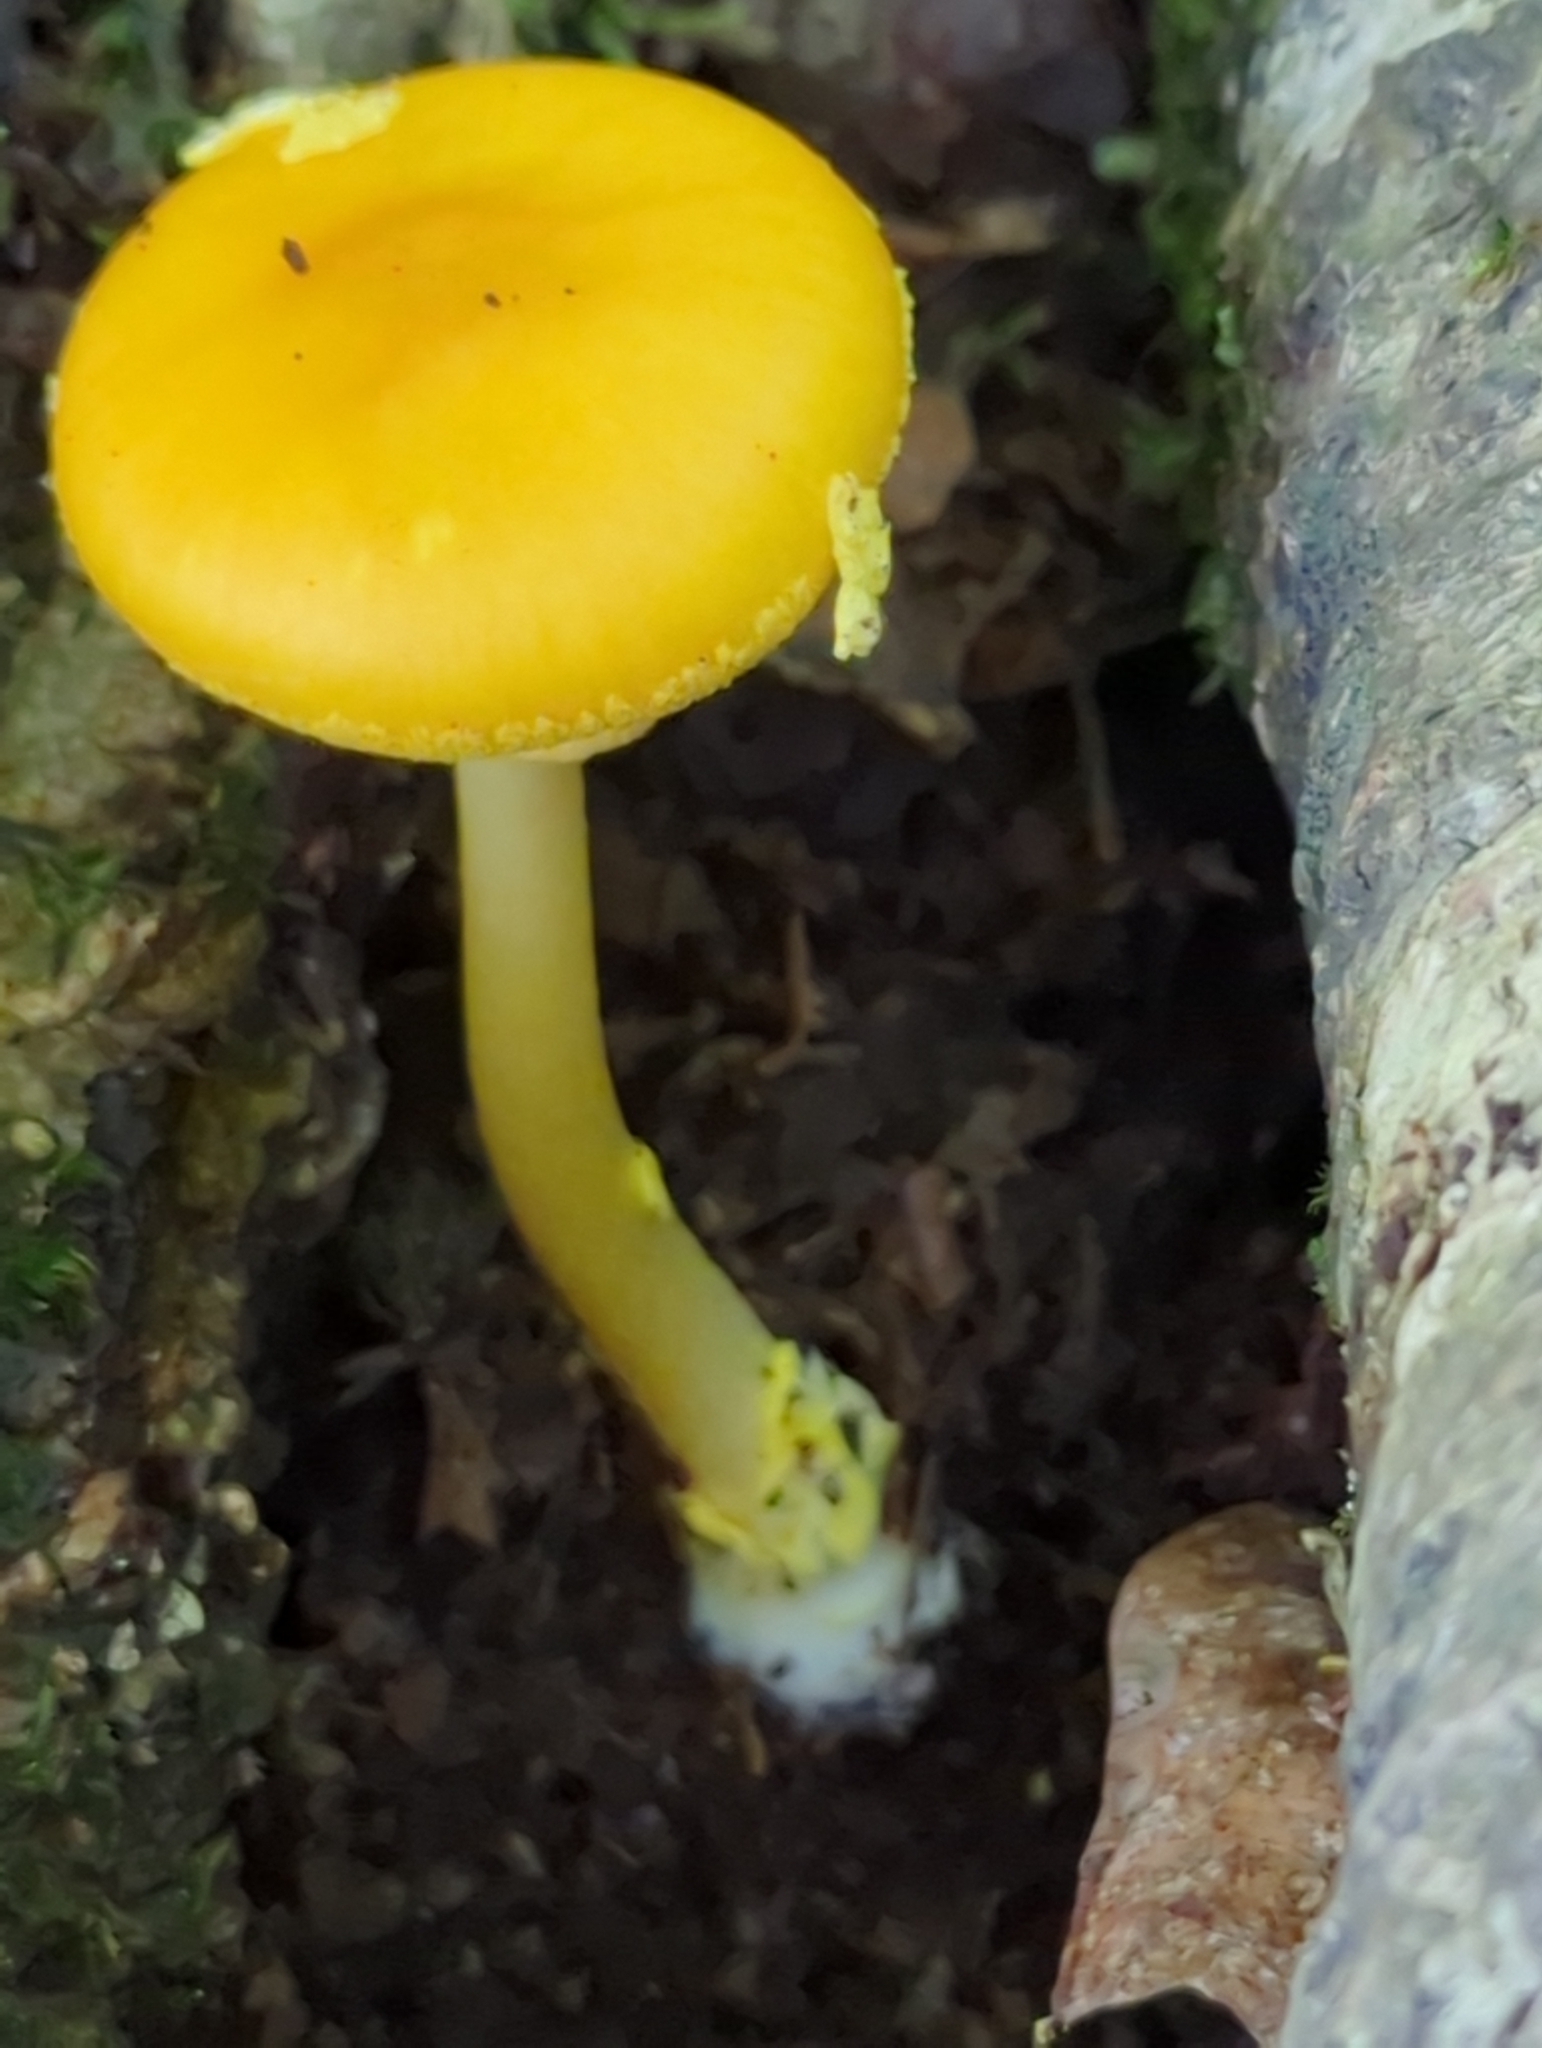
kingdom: Fungi
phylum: Basidiomycota
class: Agaricomycetes
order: Agaricales
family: Amanitaceae
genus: Amanita
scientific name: Amanita flavoconia
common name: Yellow patches
